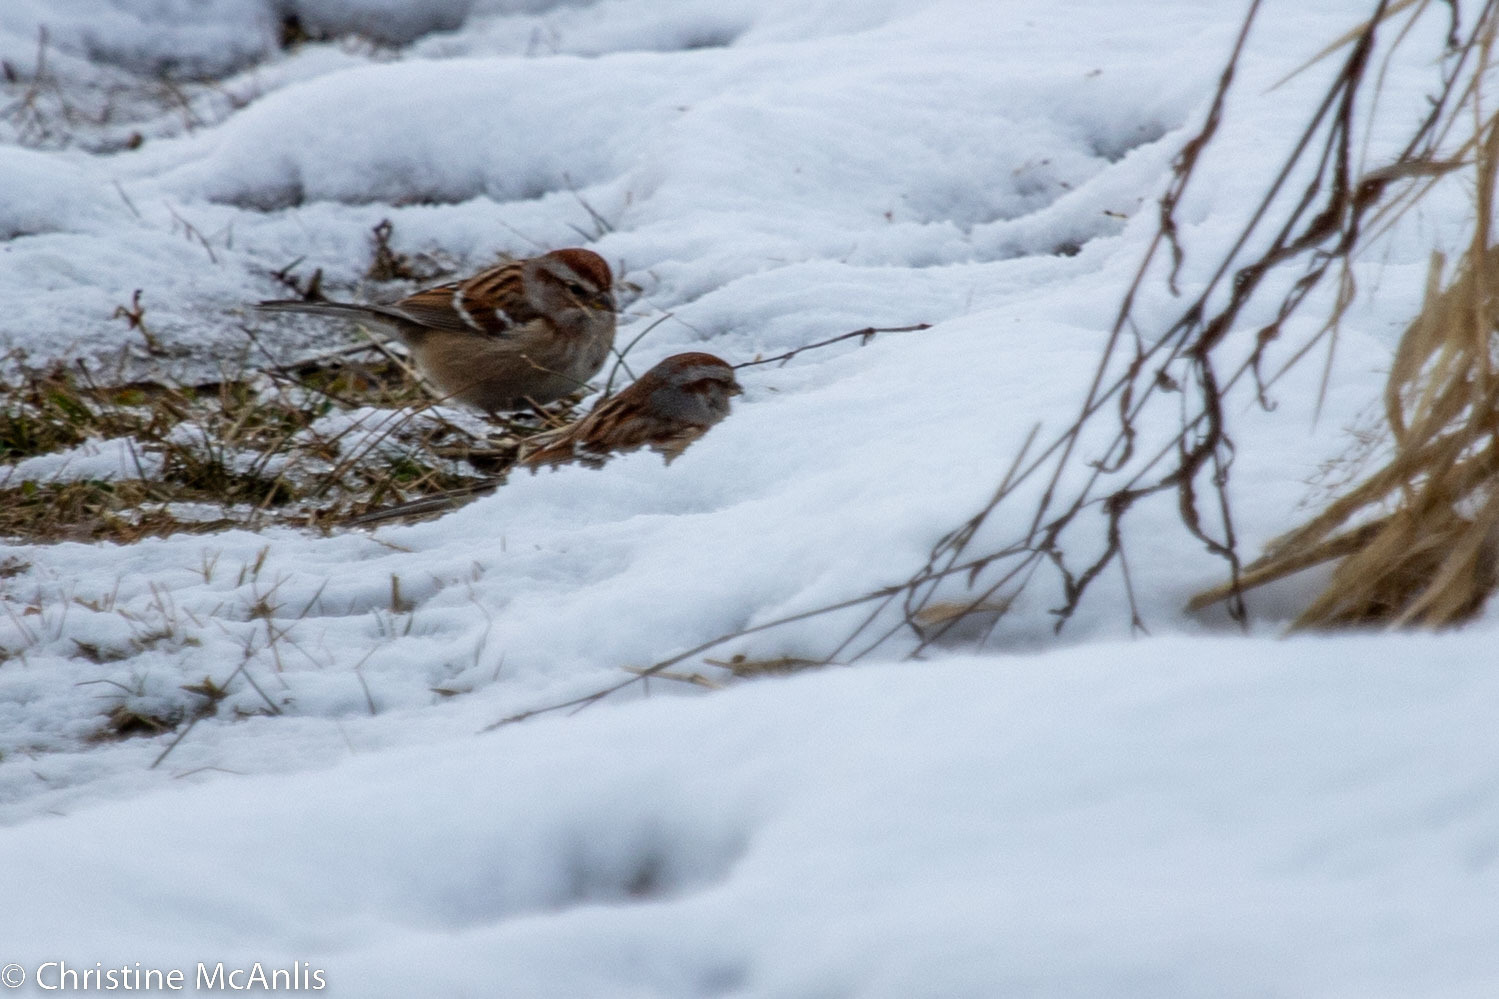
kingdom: Animalia
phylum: Chordata
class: Aves
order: Passeriformes
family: Passerellidae
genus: Spizelloides
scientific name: Spizelloides arborea
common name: American tree sparrow
